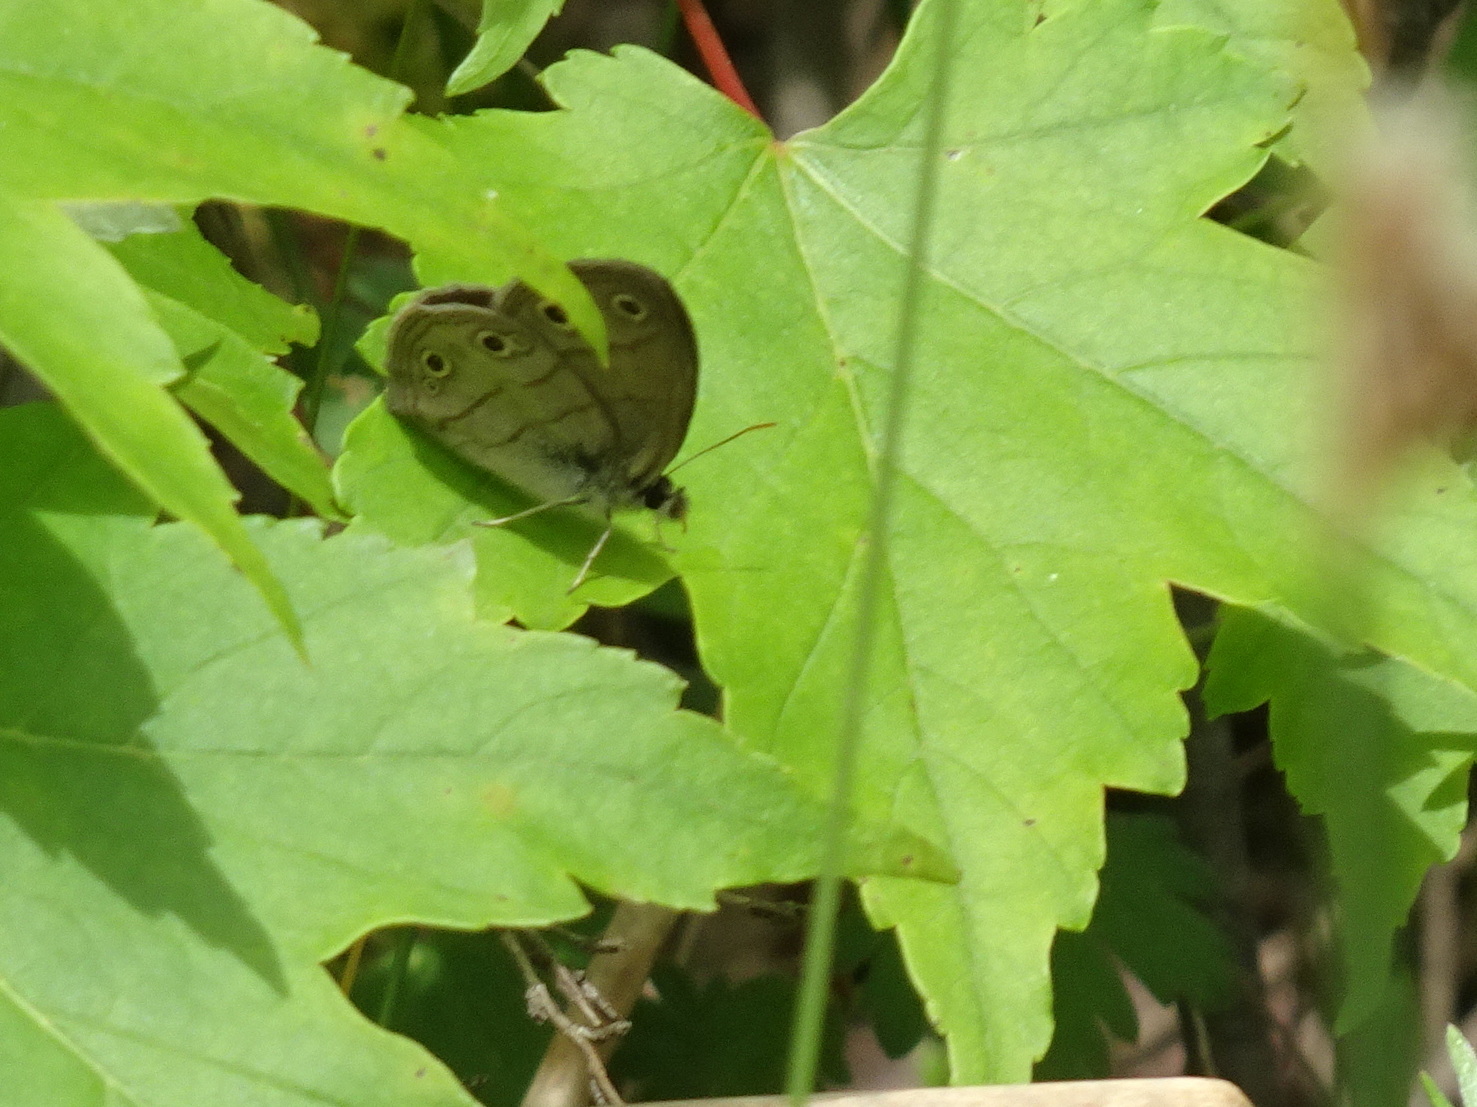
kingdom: Animalia
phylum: Arthropoda
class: Insecta
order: Lepidoptera
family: Nymphalidae
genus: Euptychia
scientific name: Euptychia cymela
